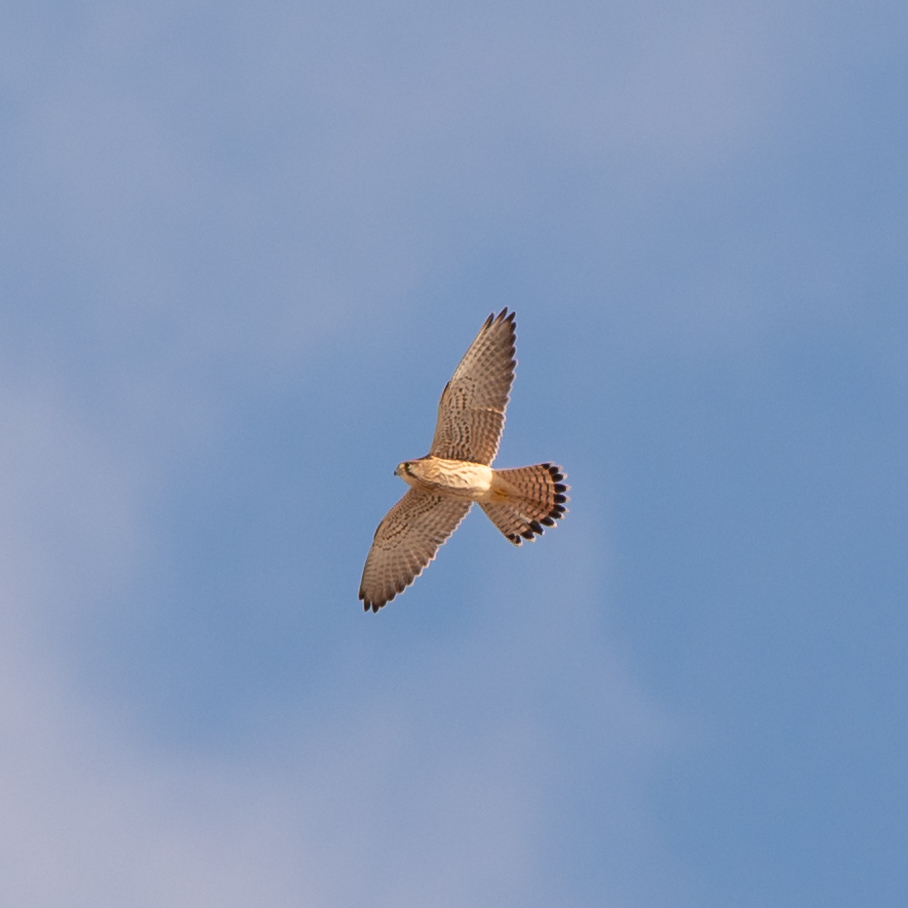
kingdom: Animalia
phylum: Chordata
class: Aves
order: Falconiformes
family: Falconidae
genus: Falco
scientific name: Falco tinnunculus
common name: Common kestrel
